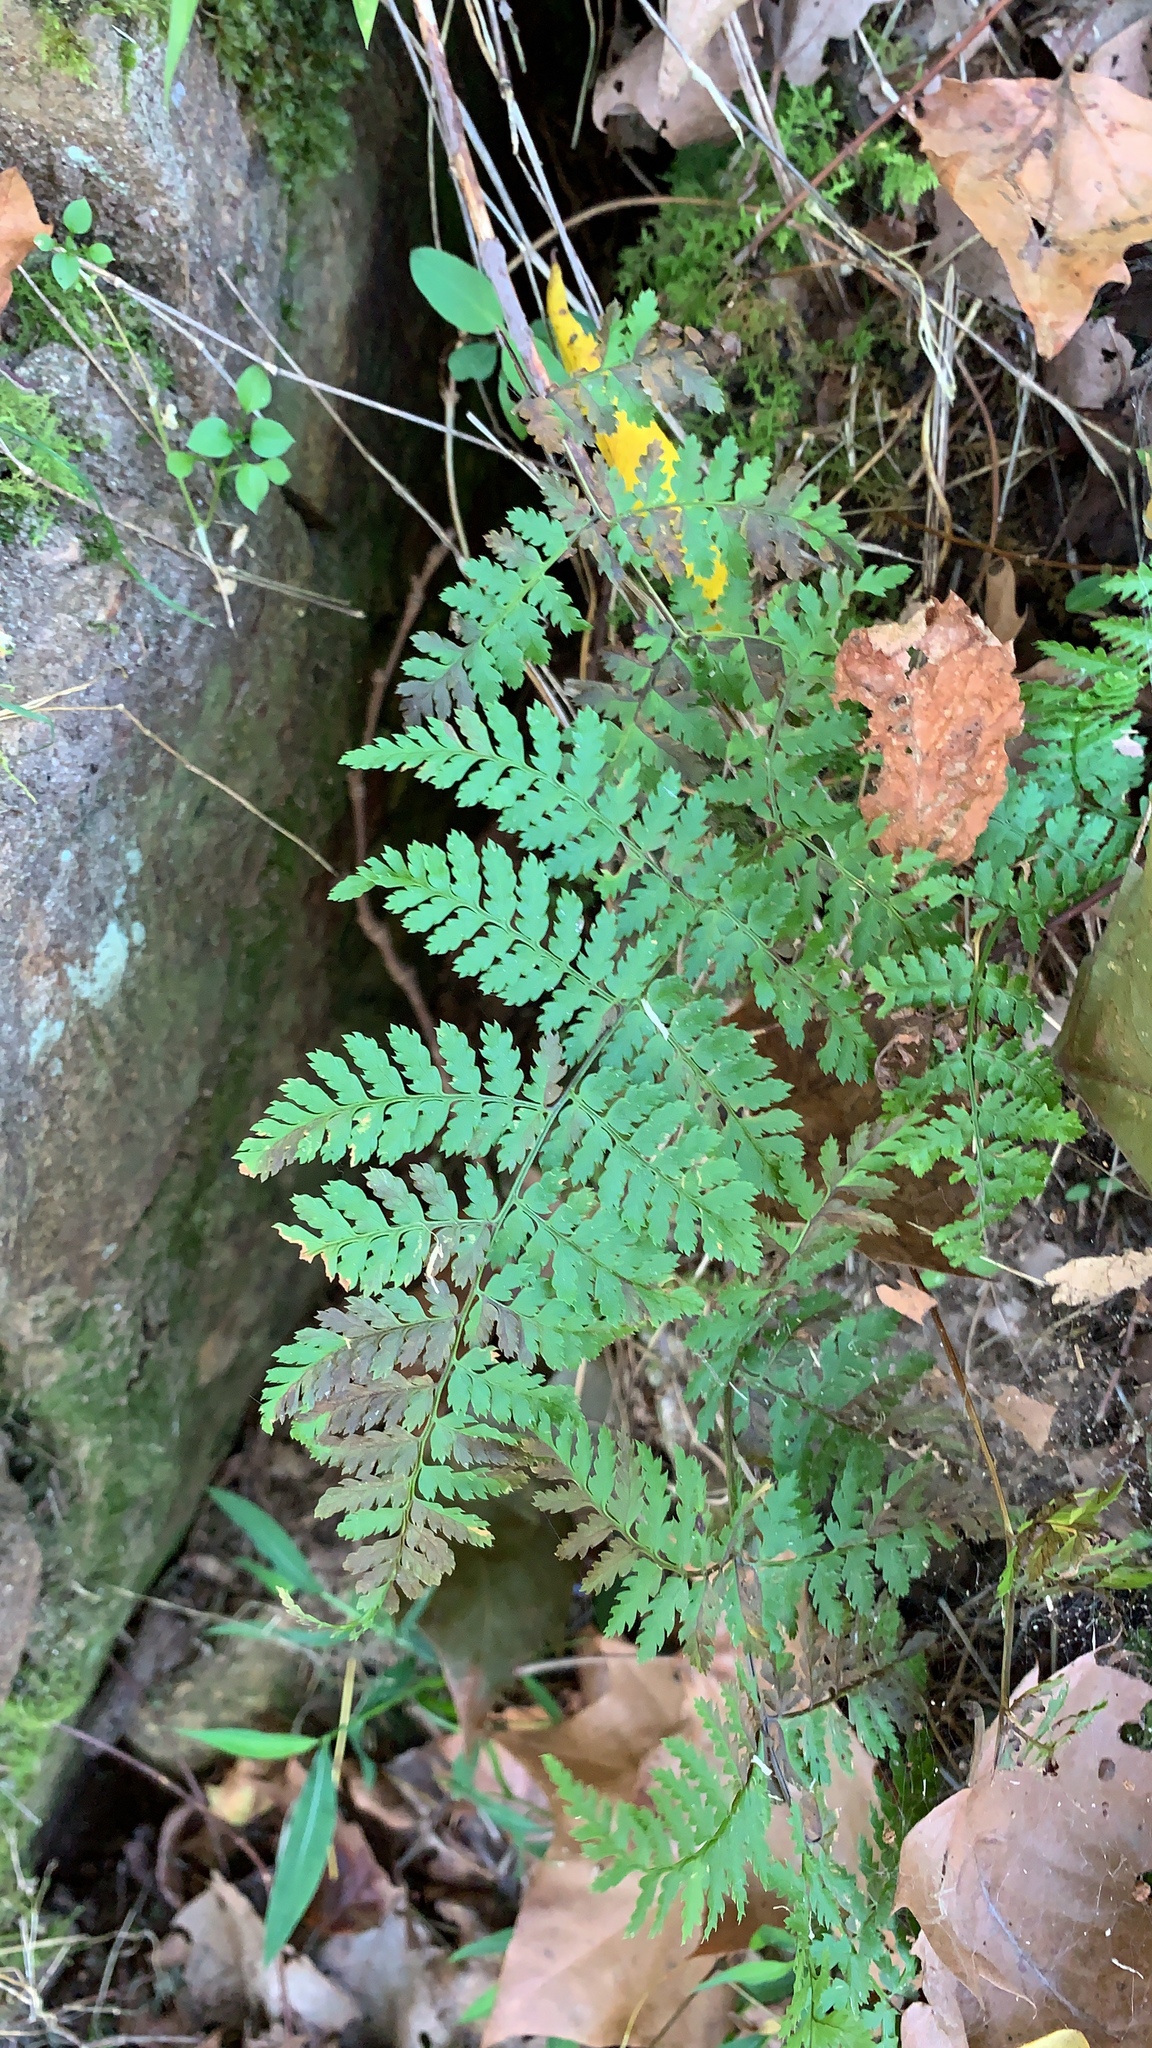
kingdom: Plantae
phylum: Tracheophyta
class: Polypodiopsida
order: Polypodiales
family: Dryopteridaceae
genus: Dryopteris
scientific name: Dryopteris intermedia
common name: Evergreen wood fern
